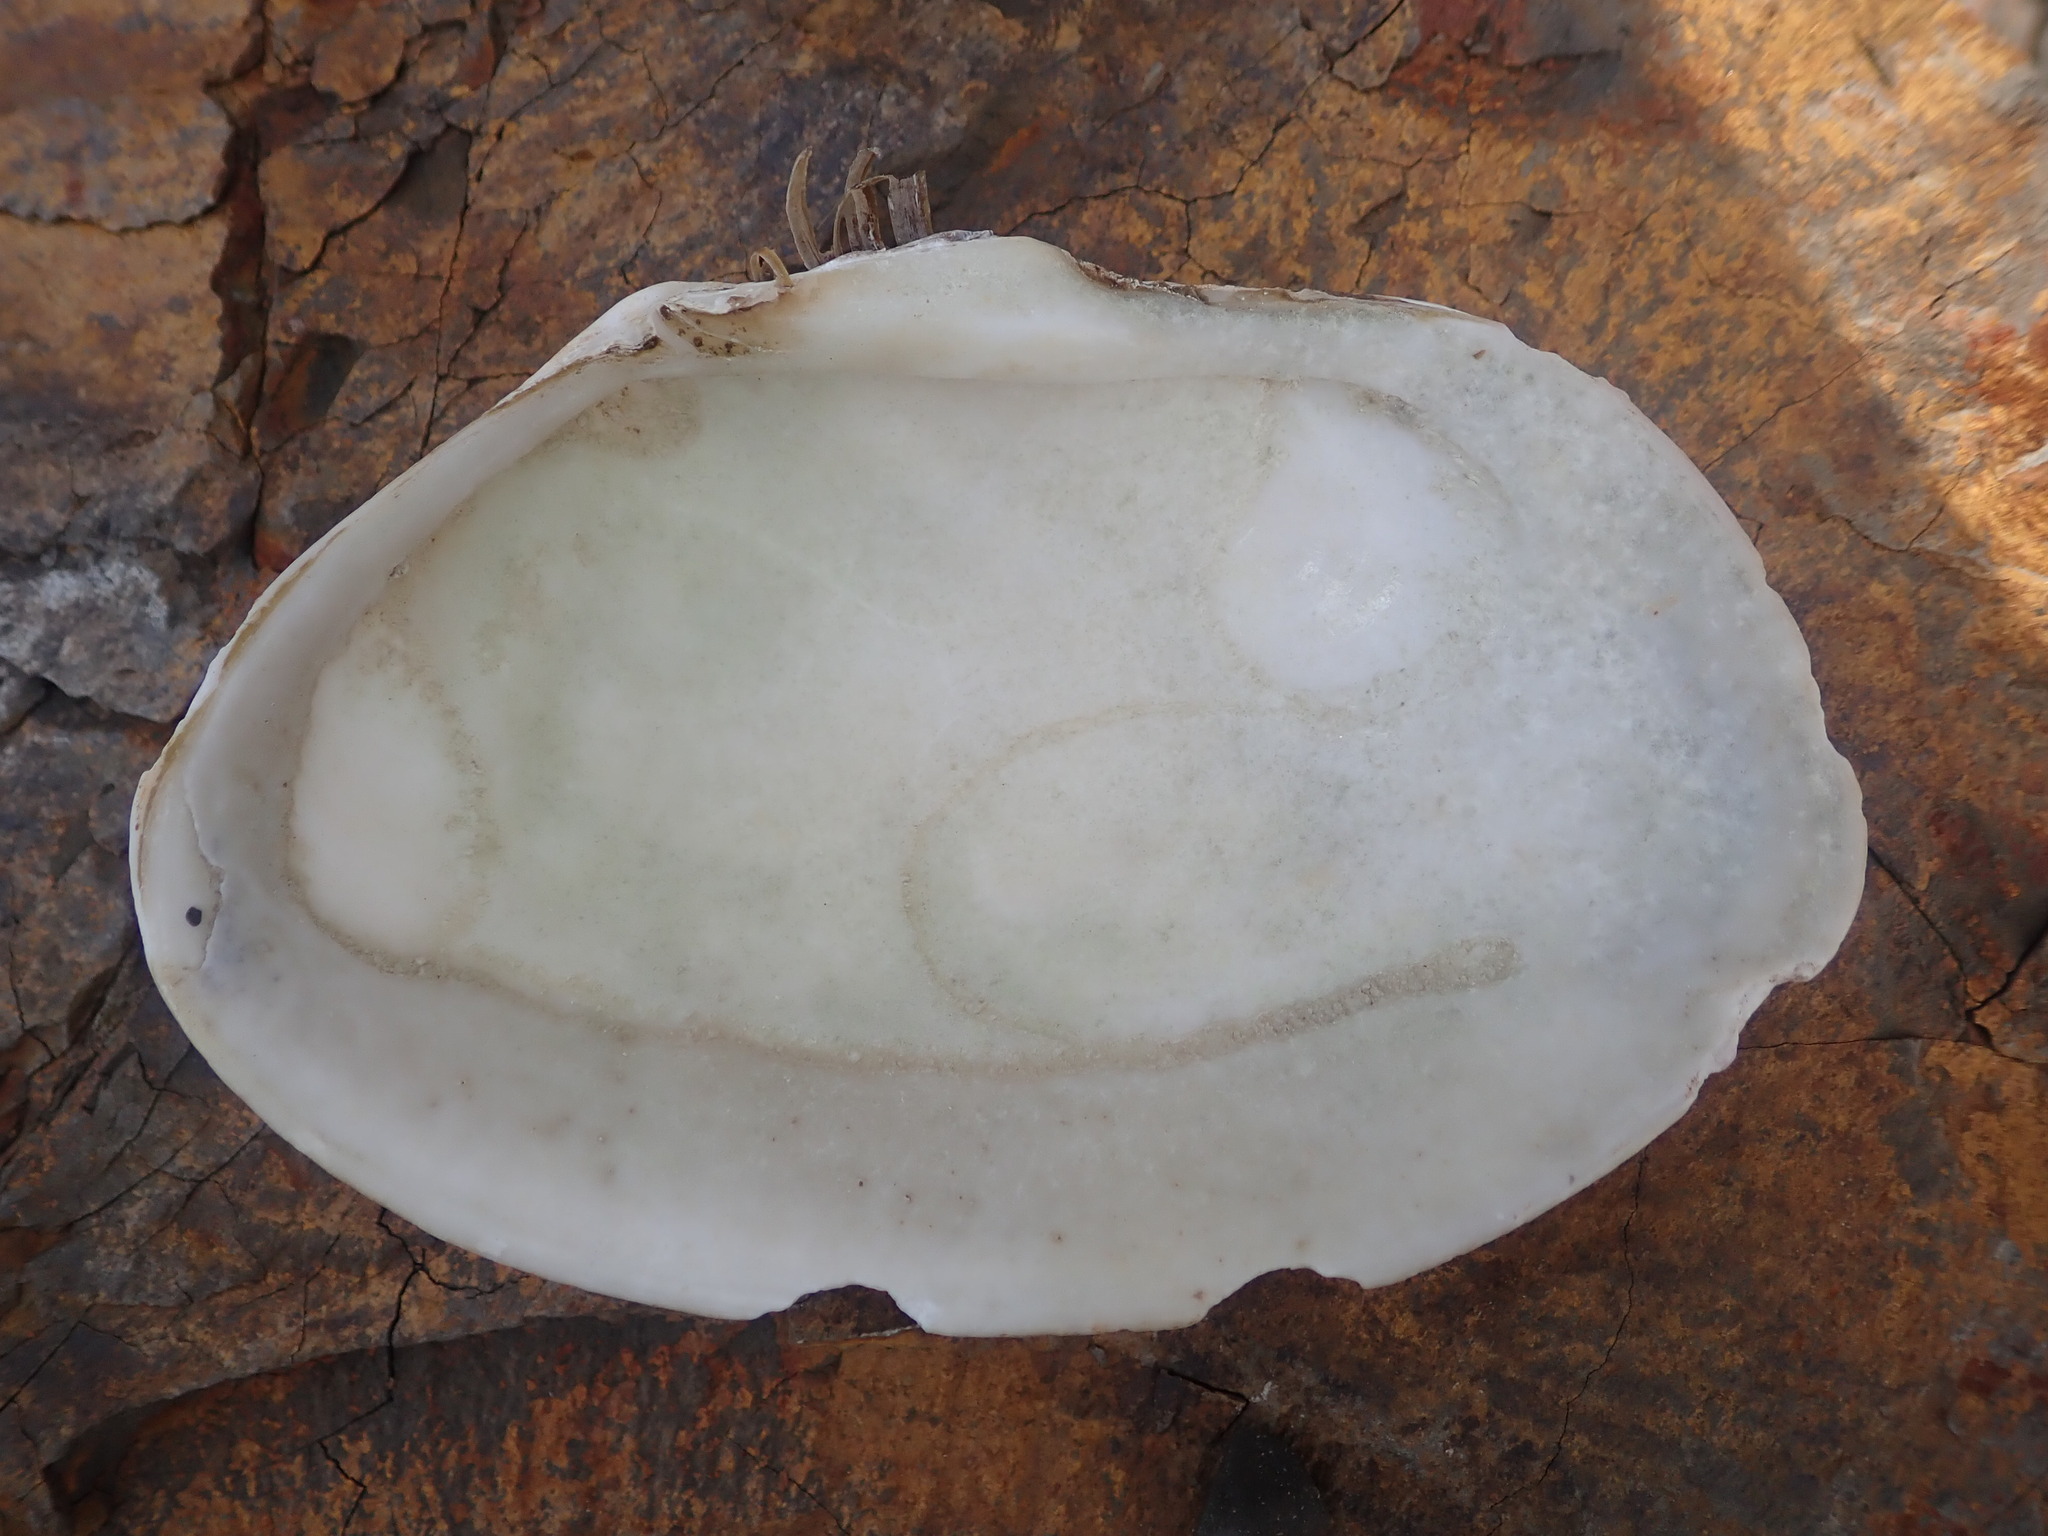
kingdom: Animalia
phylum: Mollusca
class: Bivalvia
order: Cardiida
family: Psammobiidae
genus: Gari
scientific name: Gari californica
